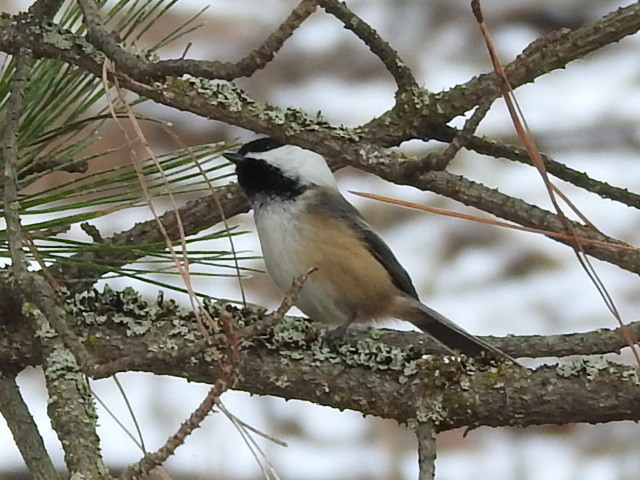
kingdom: Animalia
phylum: Chordata
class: Aves
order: Passeriformes
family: Paridae
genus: Poecile
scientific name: Poecile atricapillus
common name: Black-capped chickadee
